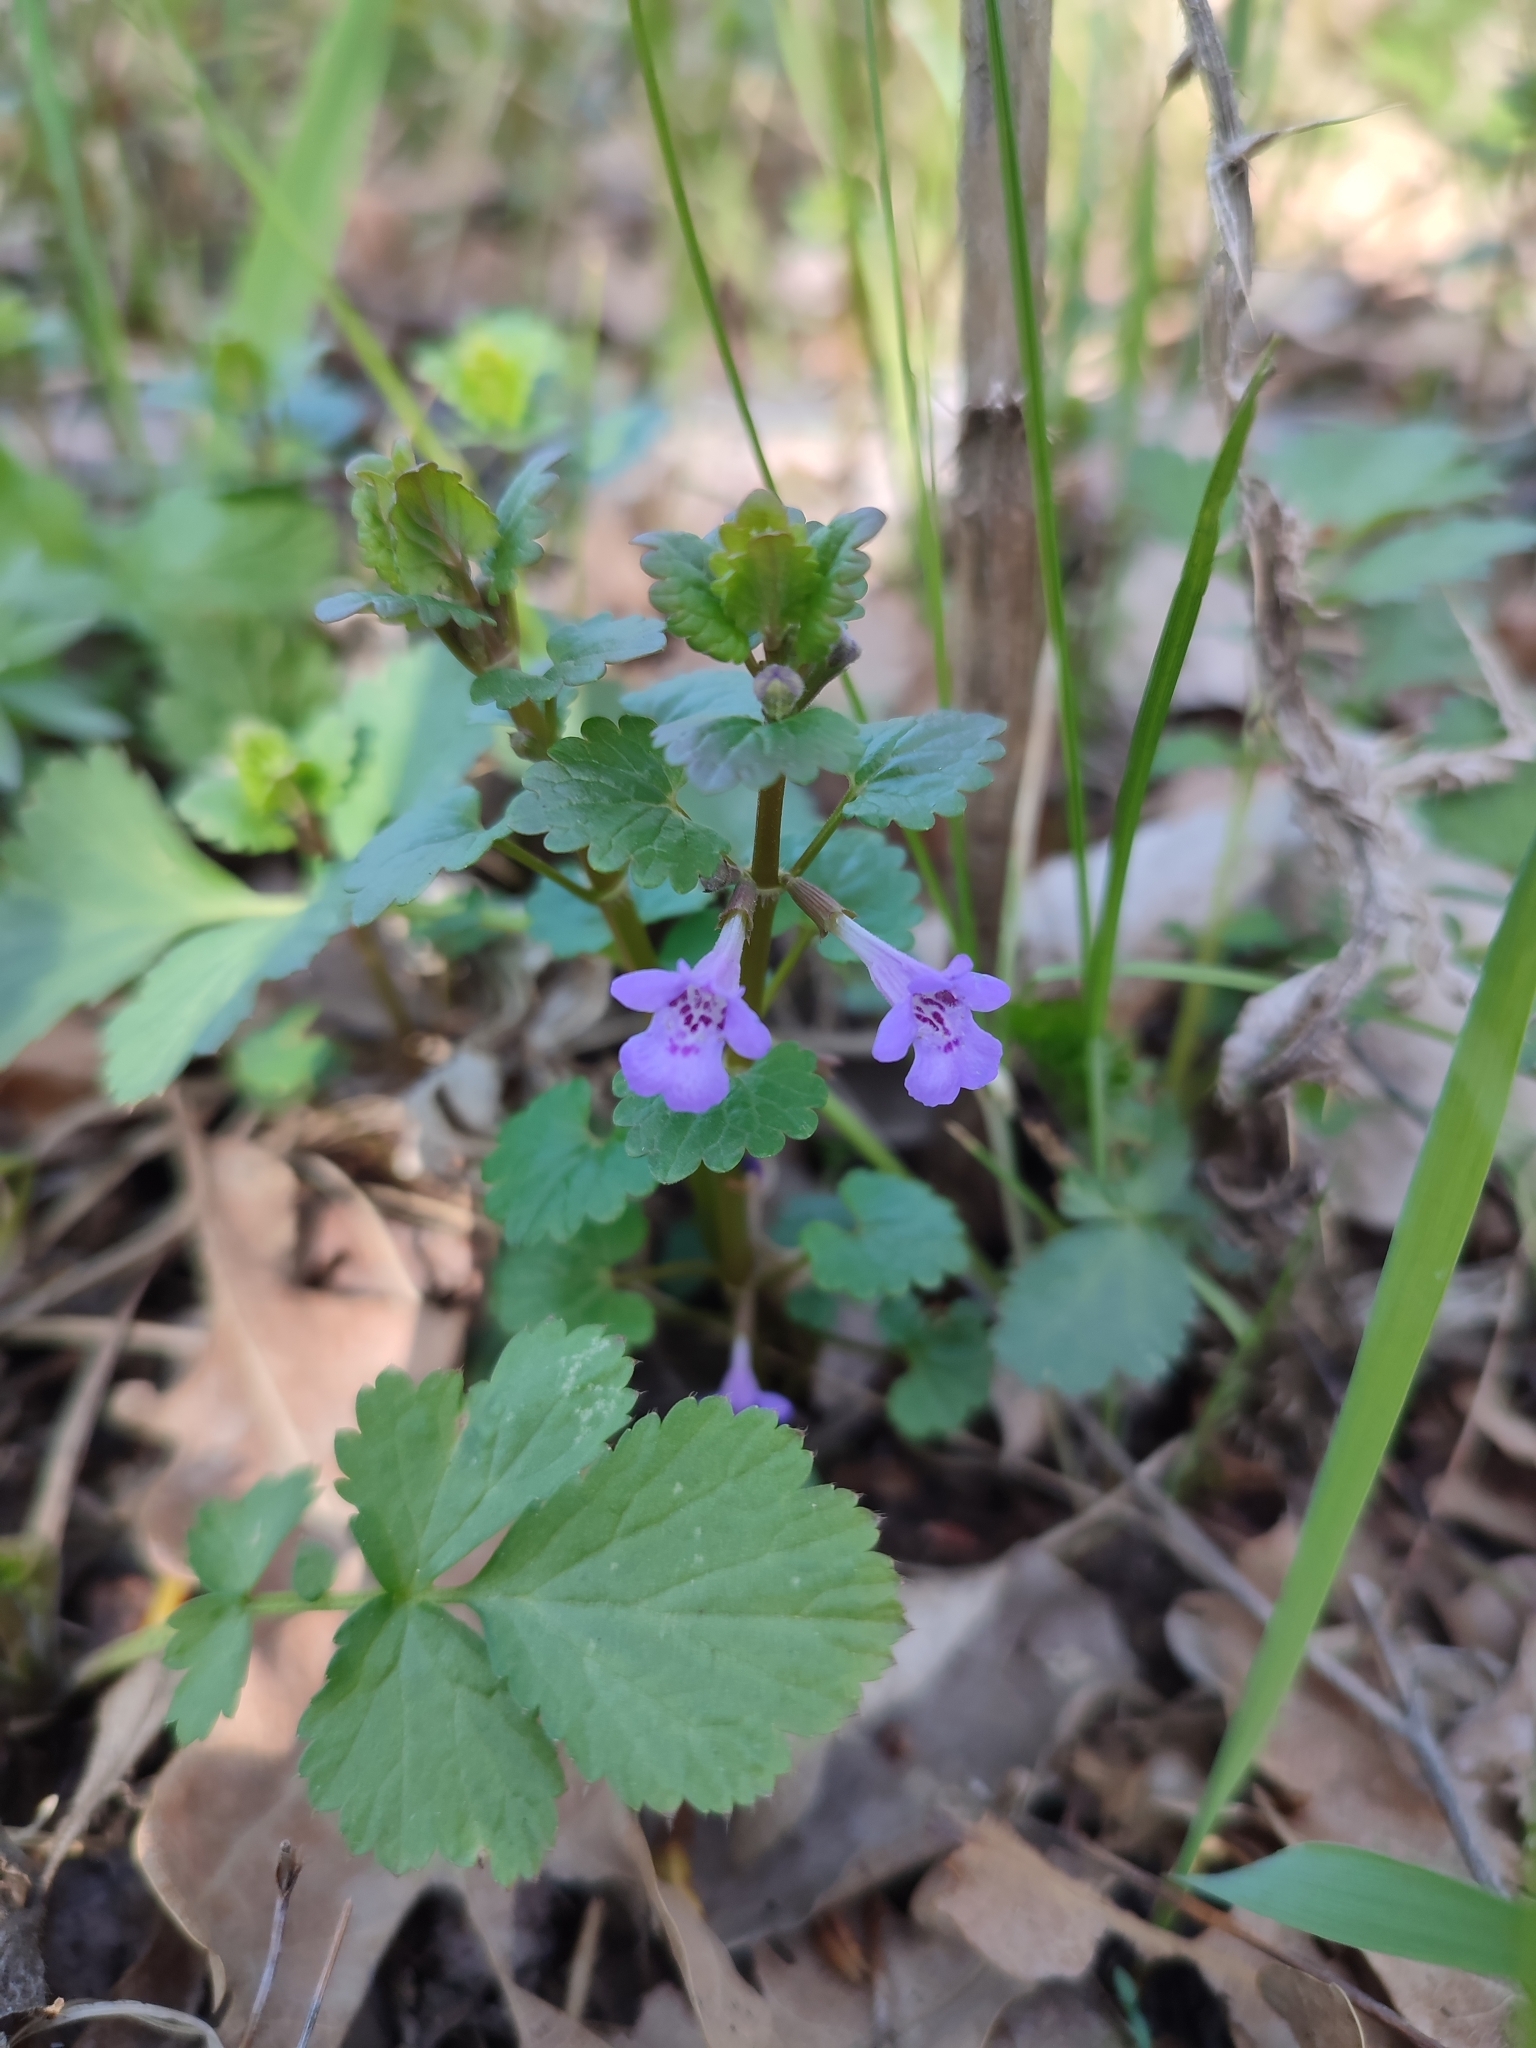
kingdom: Plantae
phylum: Tracheophyta
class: Magnoliopsida
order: Lamiales
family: Lamiaceae
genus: Glechoma
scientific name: Glechoma hederacea
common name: Ground ivy
